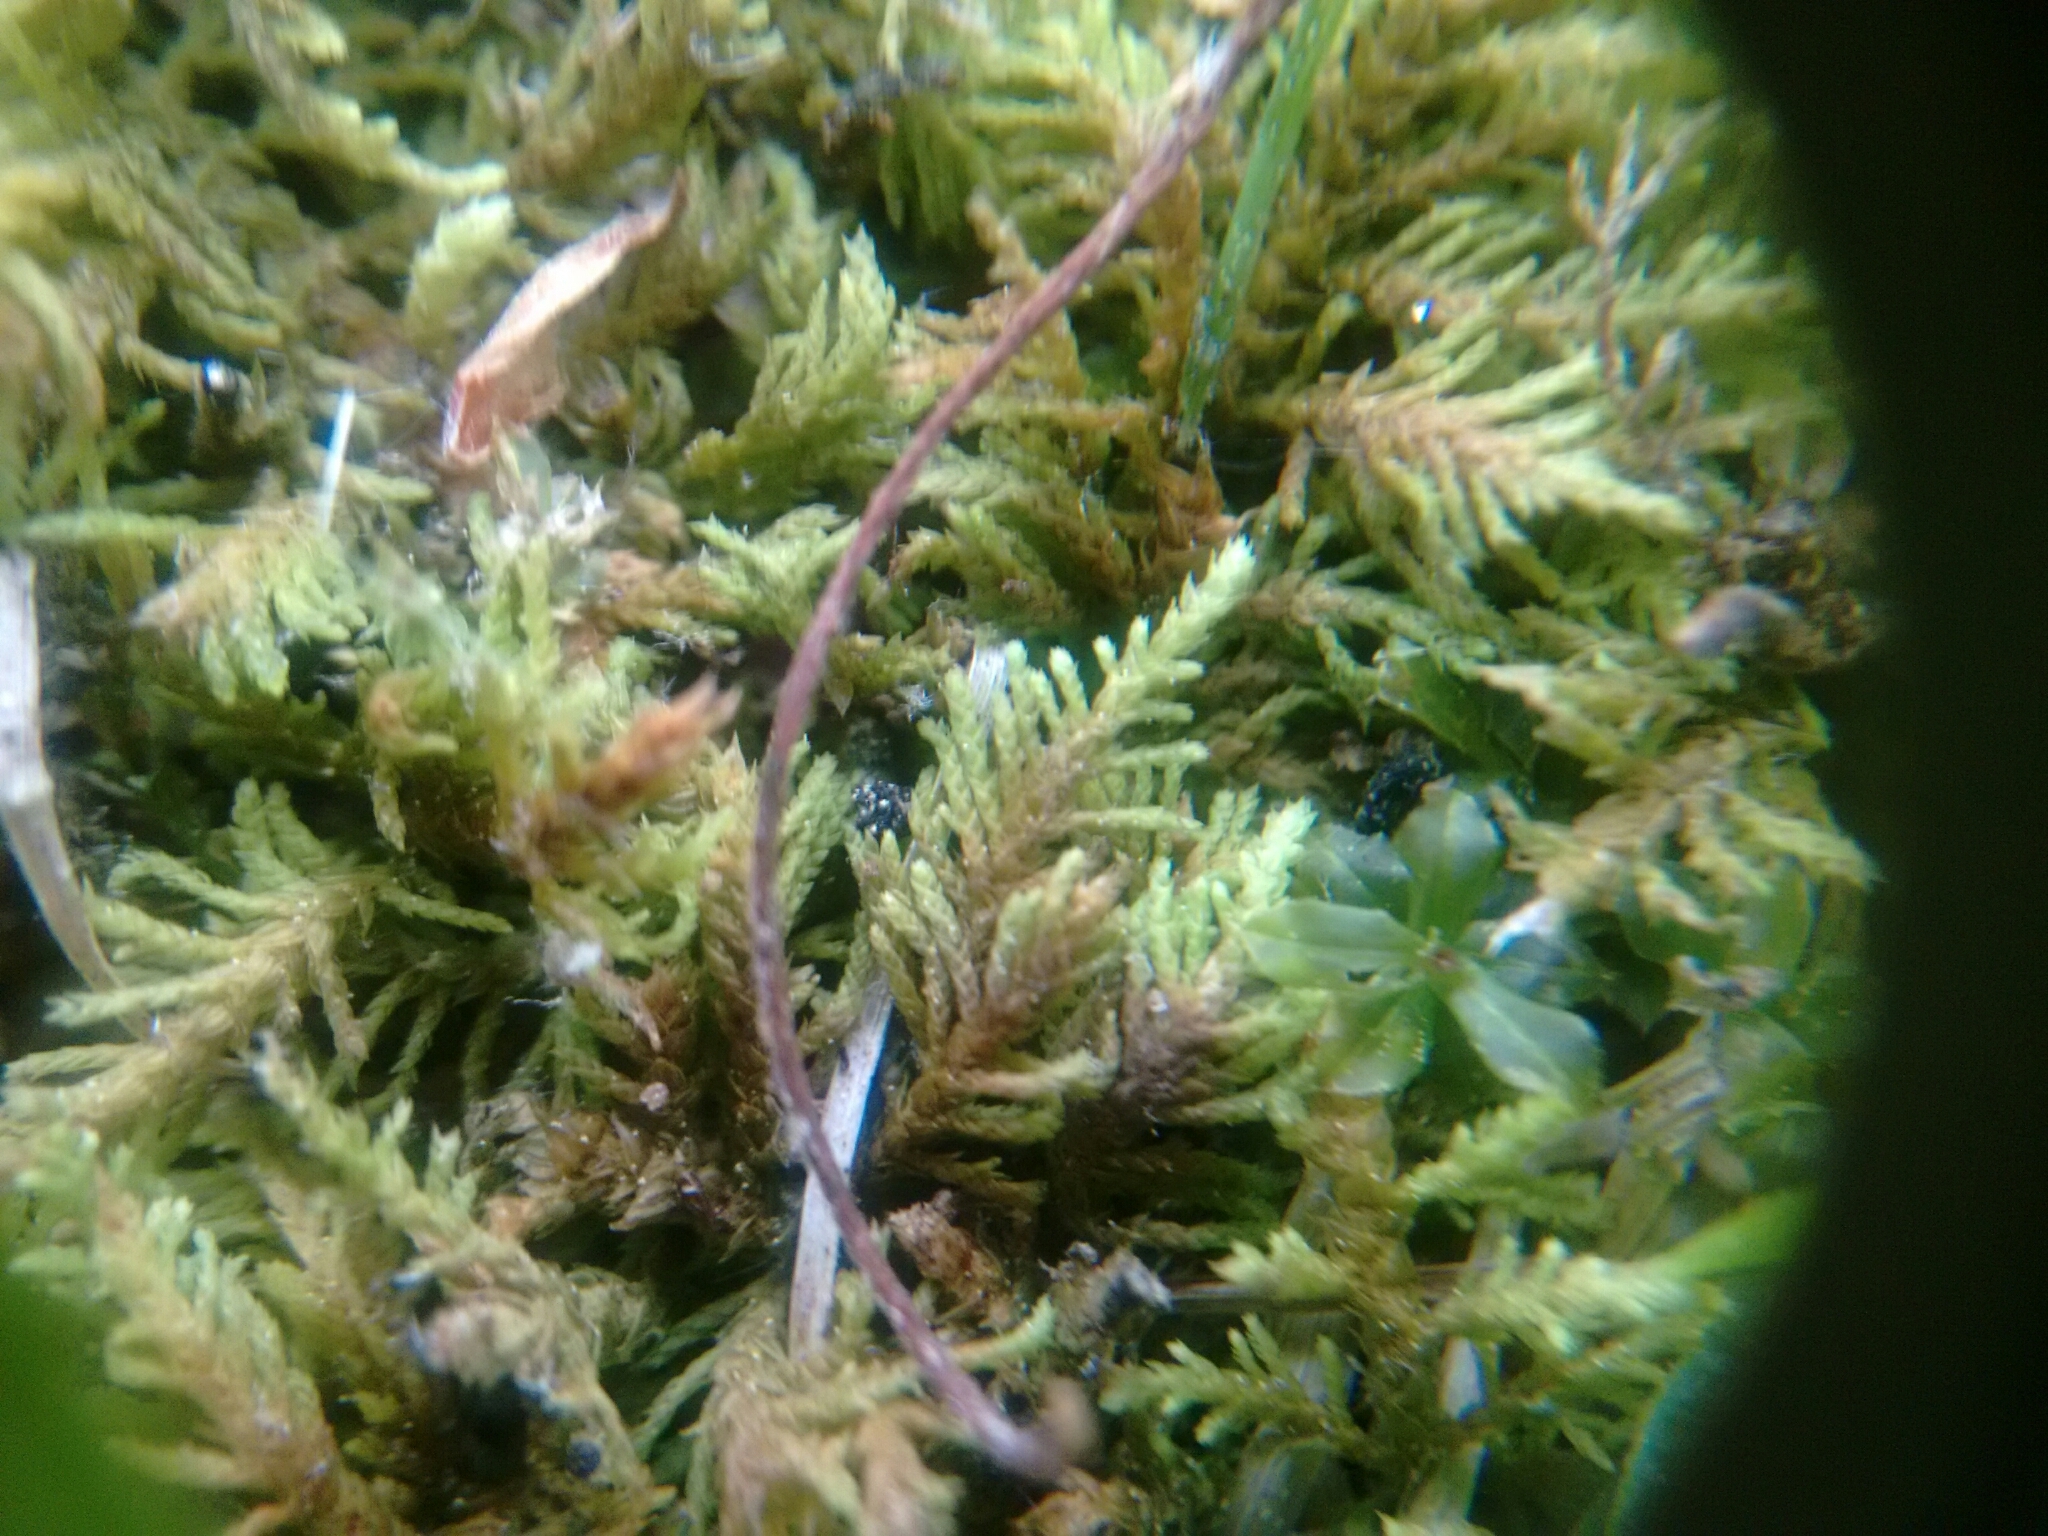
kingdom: Plantae
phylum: Bryophyta
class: Bryopsida
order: Hypnales
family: Thuidiaceae
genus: Thuidium
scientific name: Thuidium delicatulum
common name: Delicate fern moss
